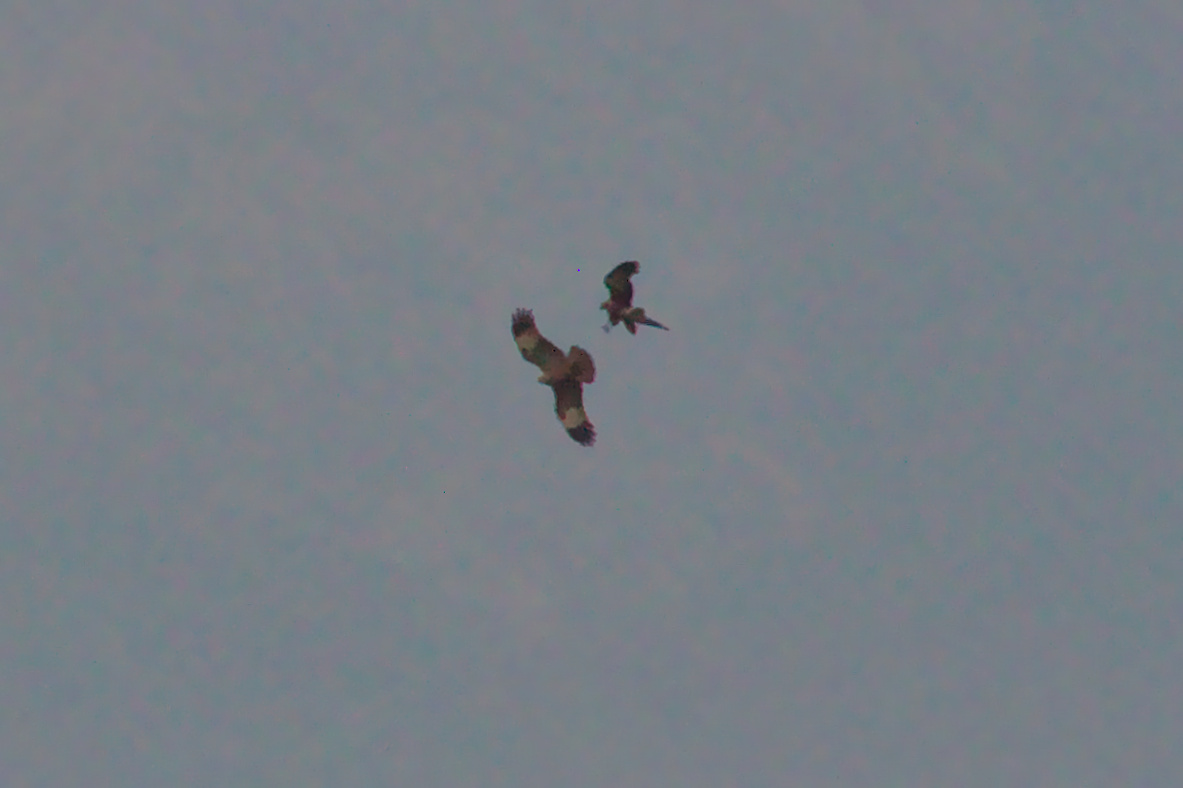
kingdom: Animalia
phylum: Chordata
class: Aves
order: Accipitriformes
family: Accipitridae
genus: Haliastur
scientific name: Haliastur indus
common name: Brahminy kite
